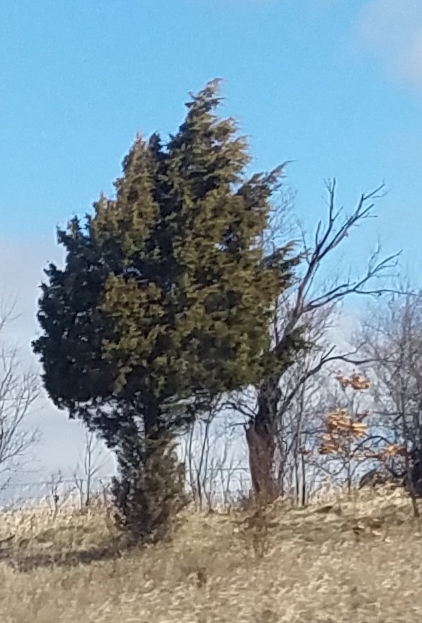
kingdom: Plantae
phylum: Tracheophyta
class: Pinopsida
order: Pinales
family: Cupressaceae
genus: Juniperus
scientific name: Juniperus virginiana
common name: Red juniper
